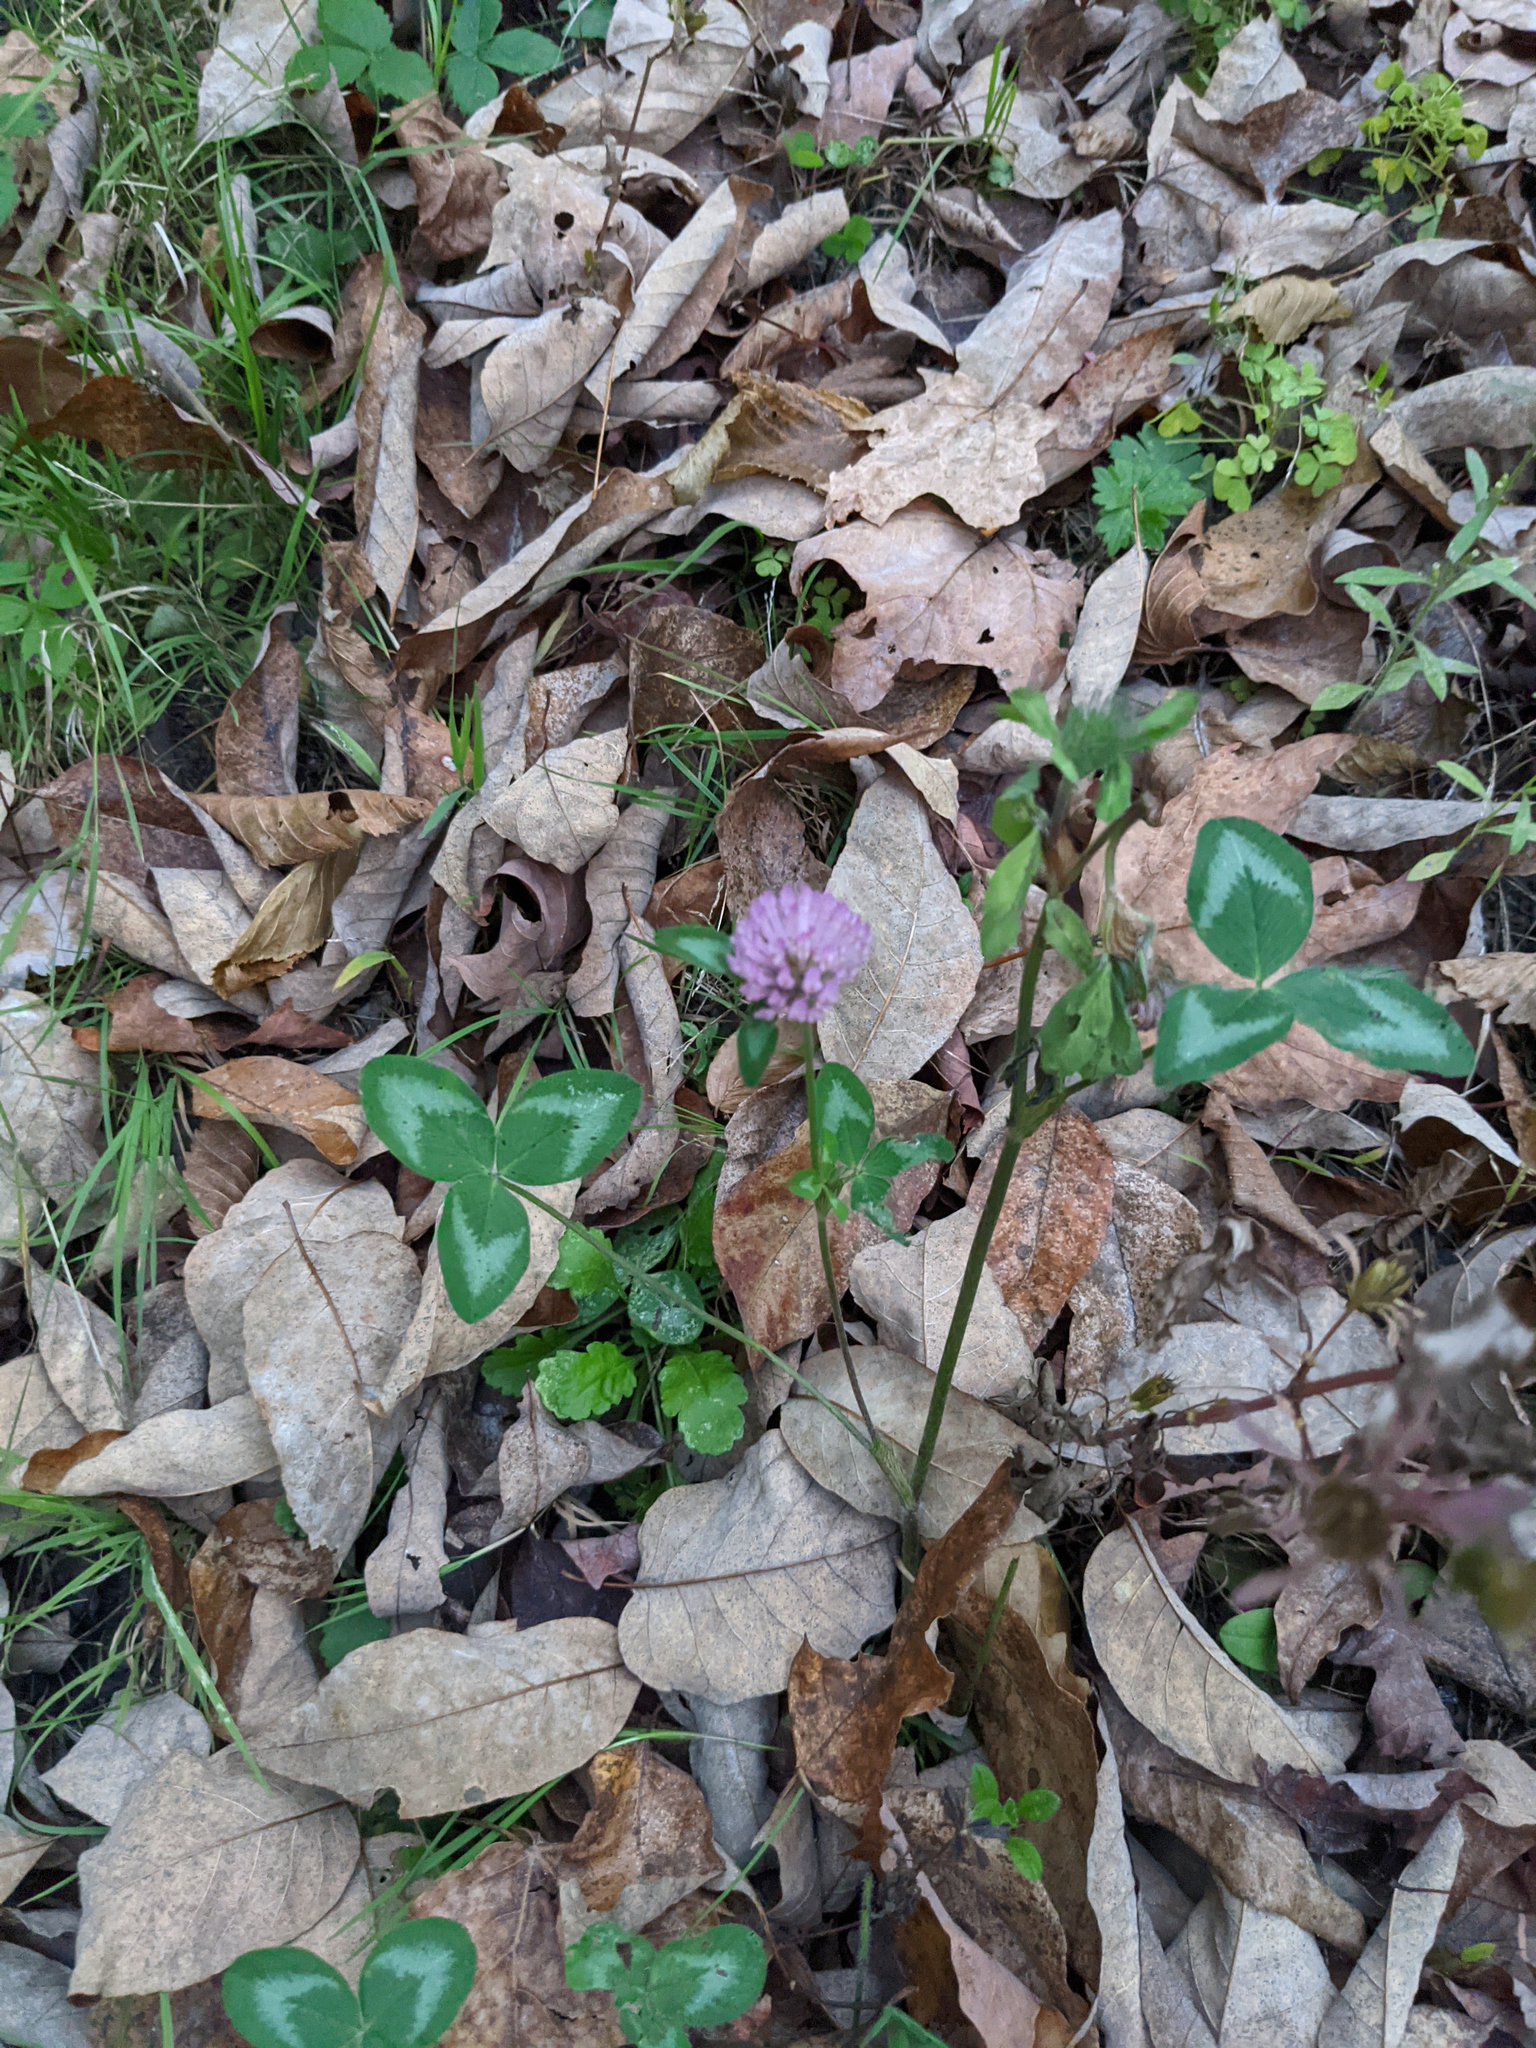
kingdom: Plantae
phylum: Tracheophyta
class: Magnoliopsida
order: Fabales
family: Fabaceae
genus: Trifolium
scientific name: Trifolium pratense
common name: Red clover
